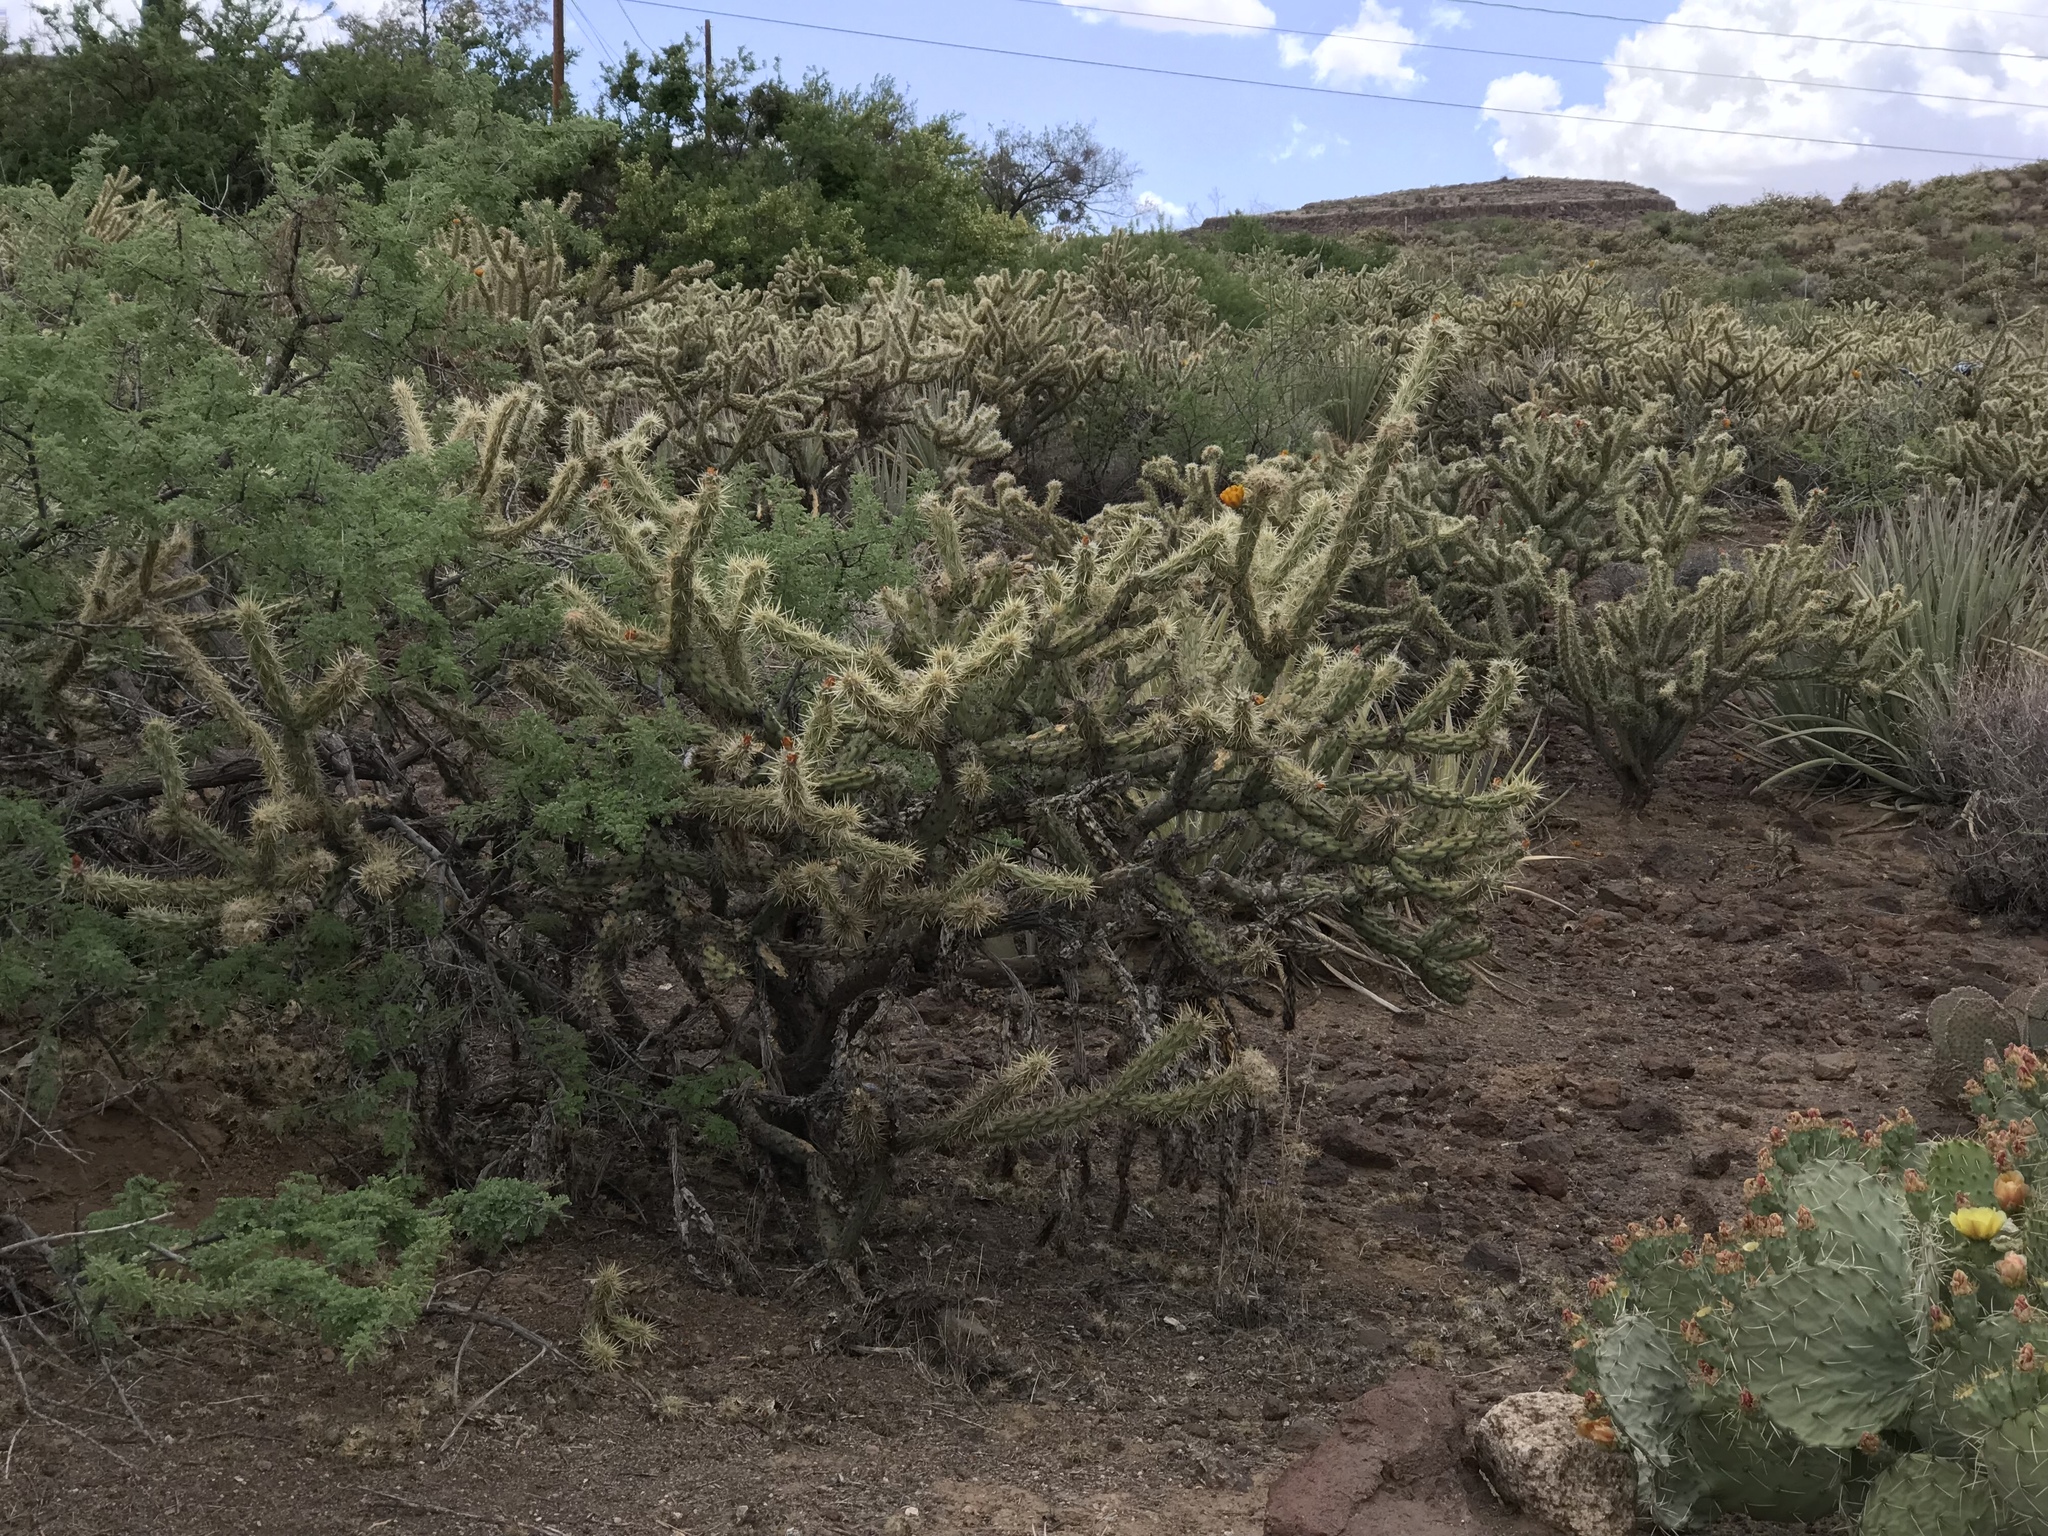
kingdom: Plantae
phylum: Tracheophyta
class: Magnoliopsida
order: Caryophyllales
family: Cactaceae
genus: Cylindropuntia
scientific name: Cylindropuntia acanthocarpa
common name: Buckhorn cholla
